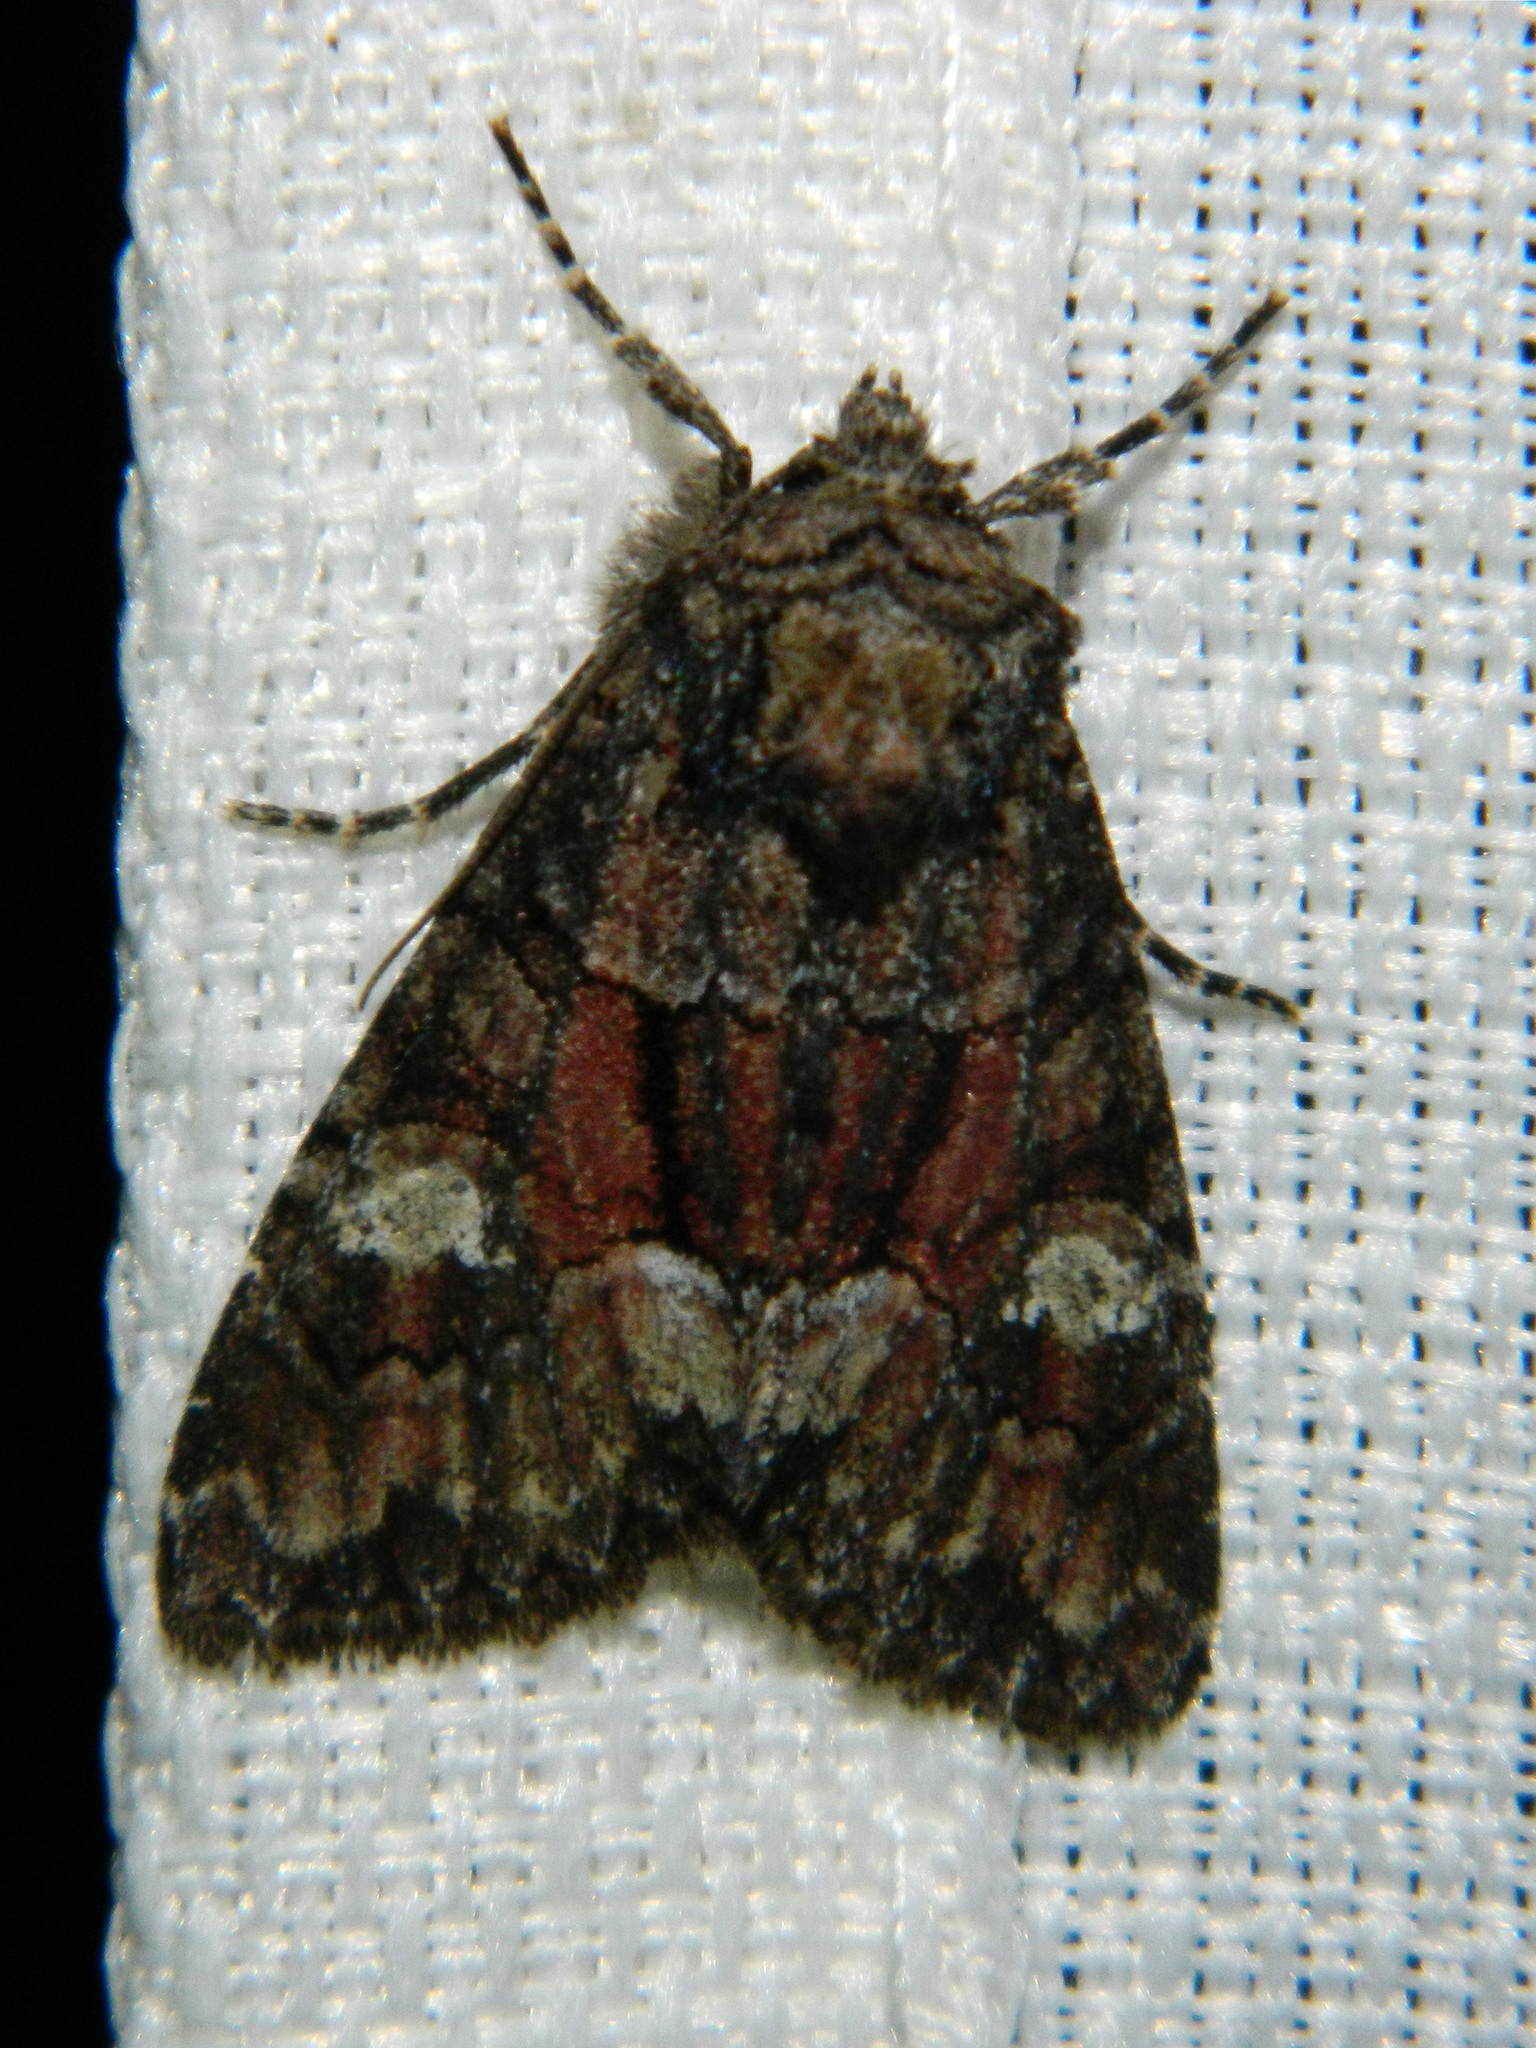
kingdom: Animalia
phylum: Arthropoda
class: Insecta
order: Lepidoptera
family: Noctuidae
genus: Fishia
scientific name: Fishia illocata
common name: Wandering brocade moth
